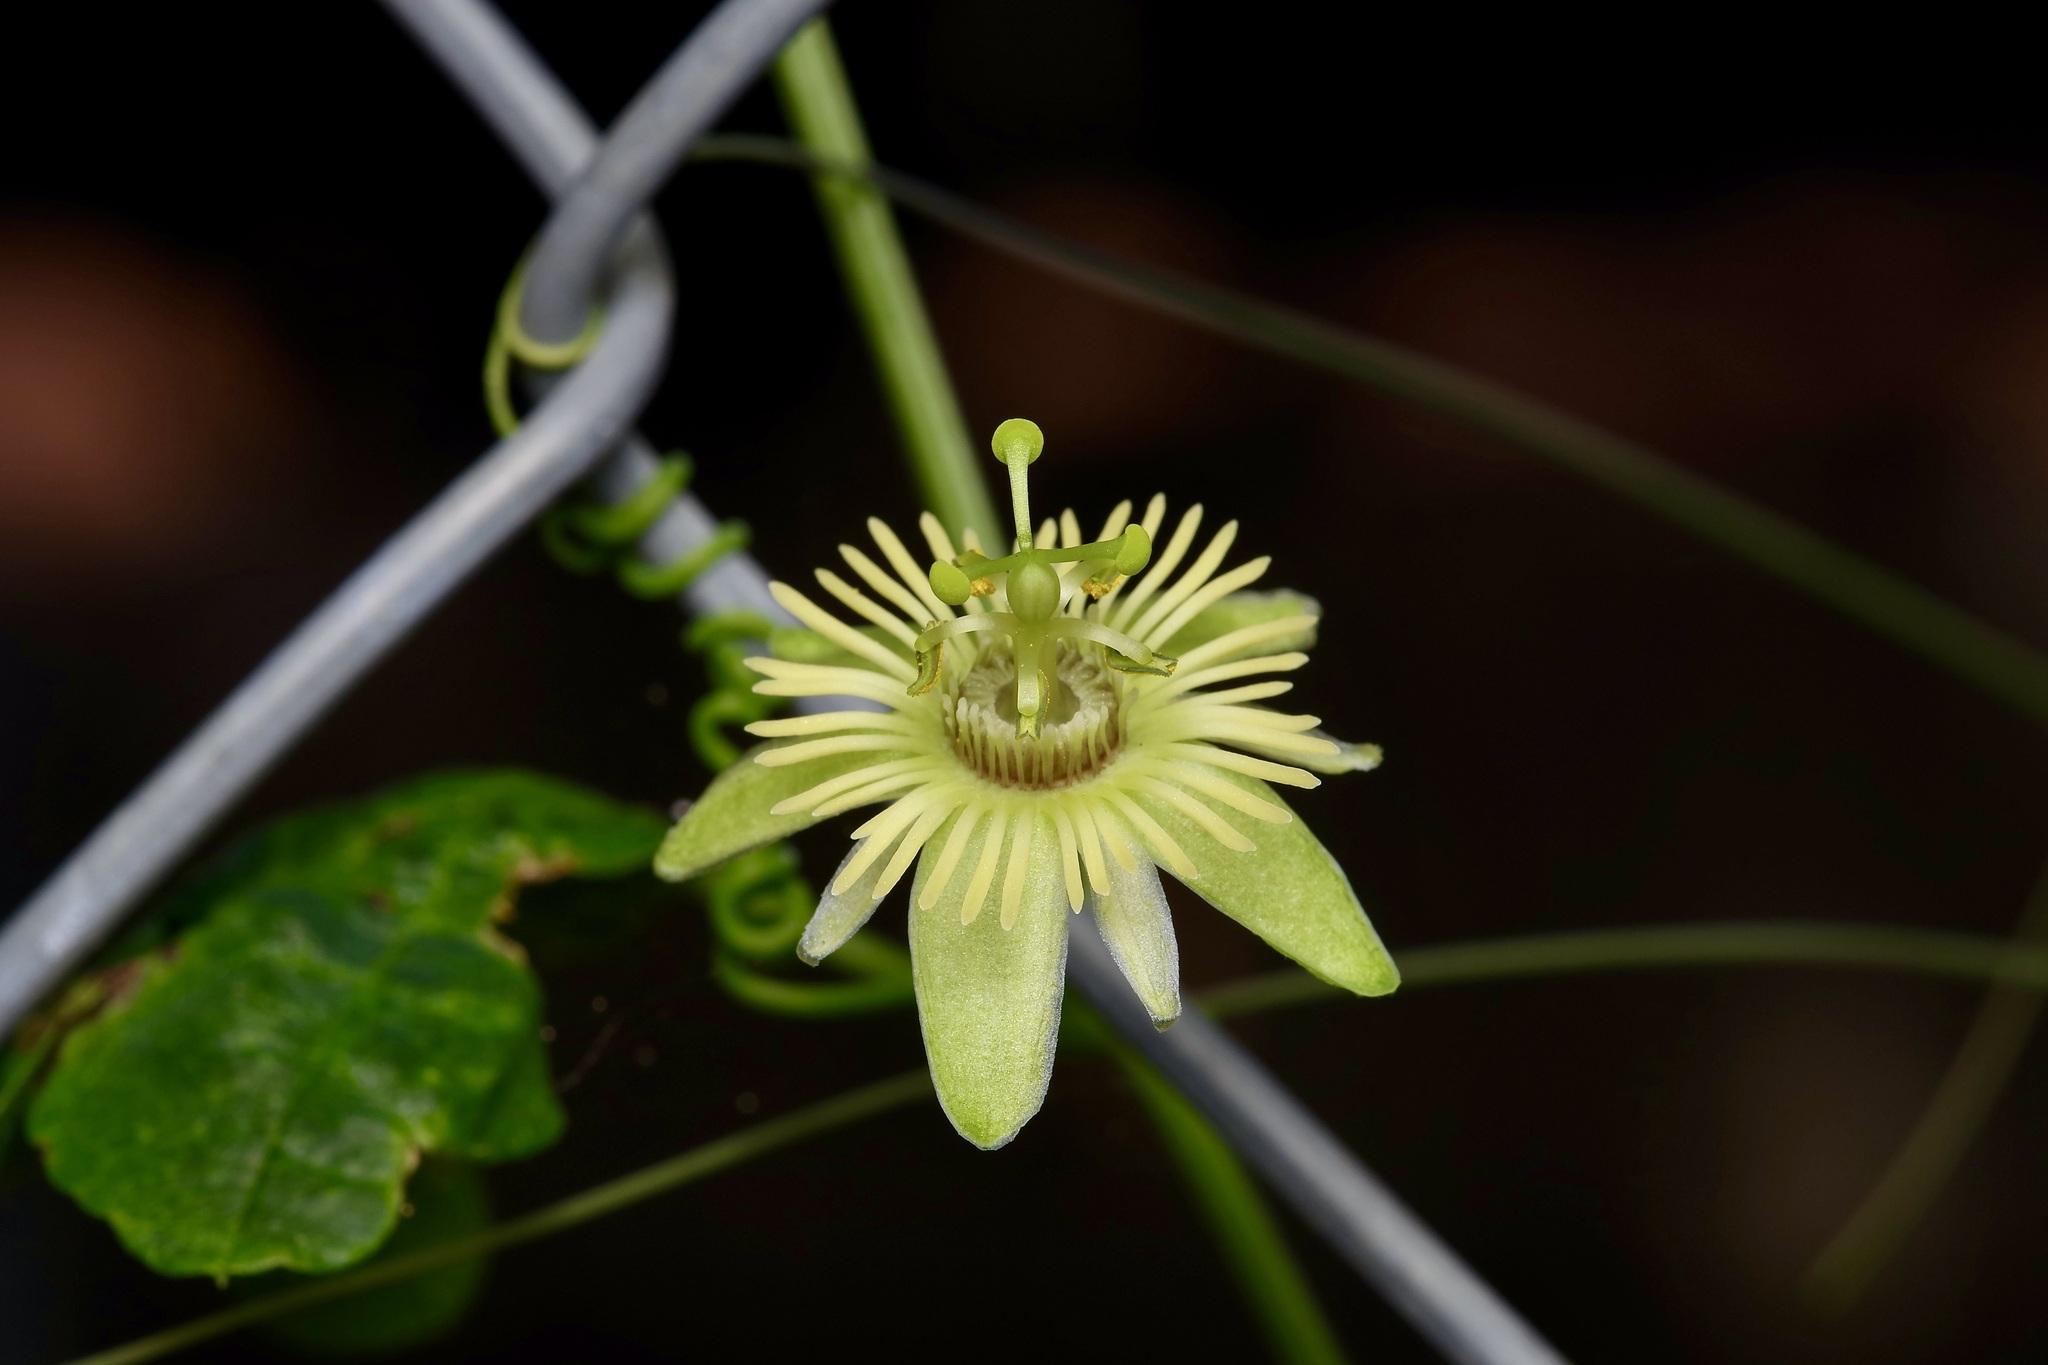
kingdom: Plantae
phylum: Tracheophyta
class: Magnoliopsida
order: Malpighiales
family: Passifloraceae
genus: Passiflora
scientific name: Passiflora lutea
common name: Yellow passionflower
